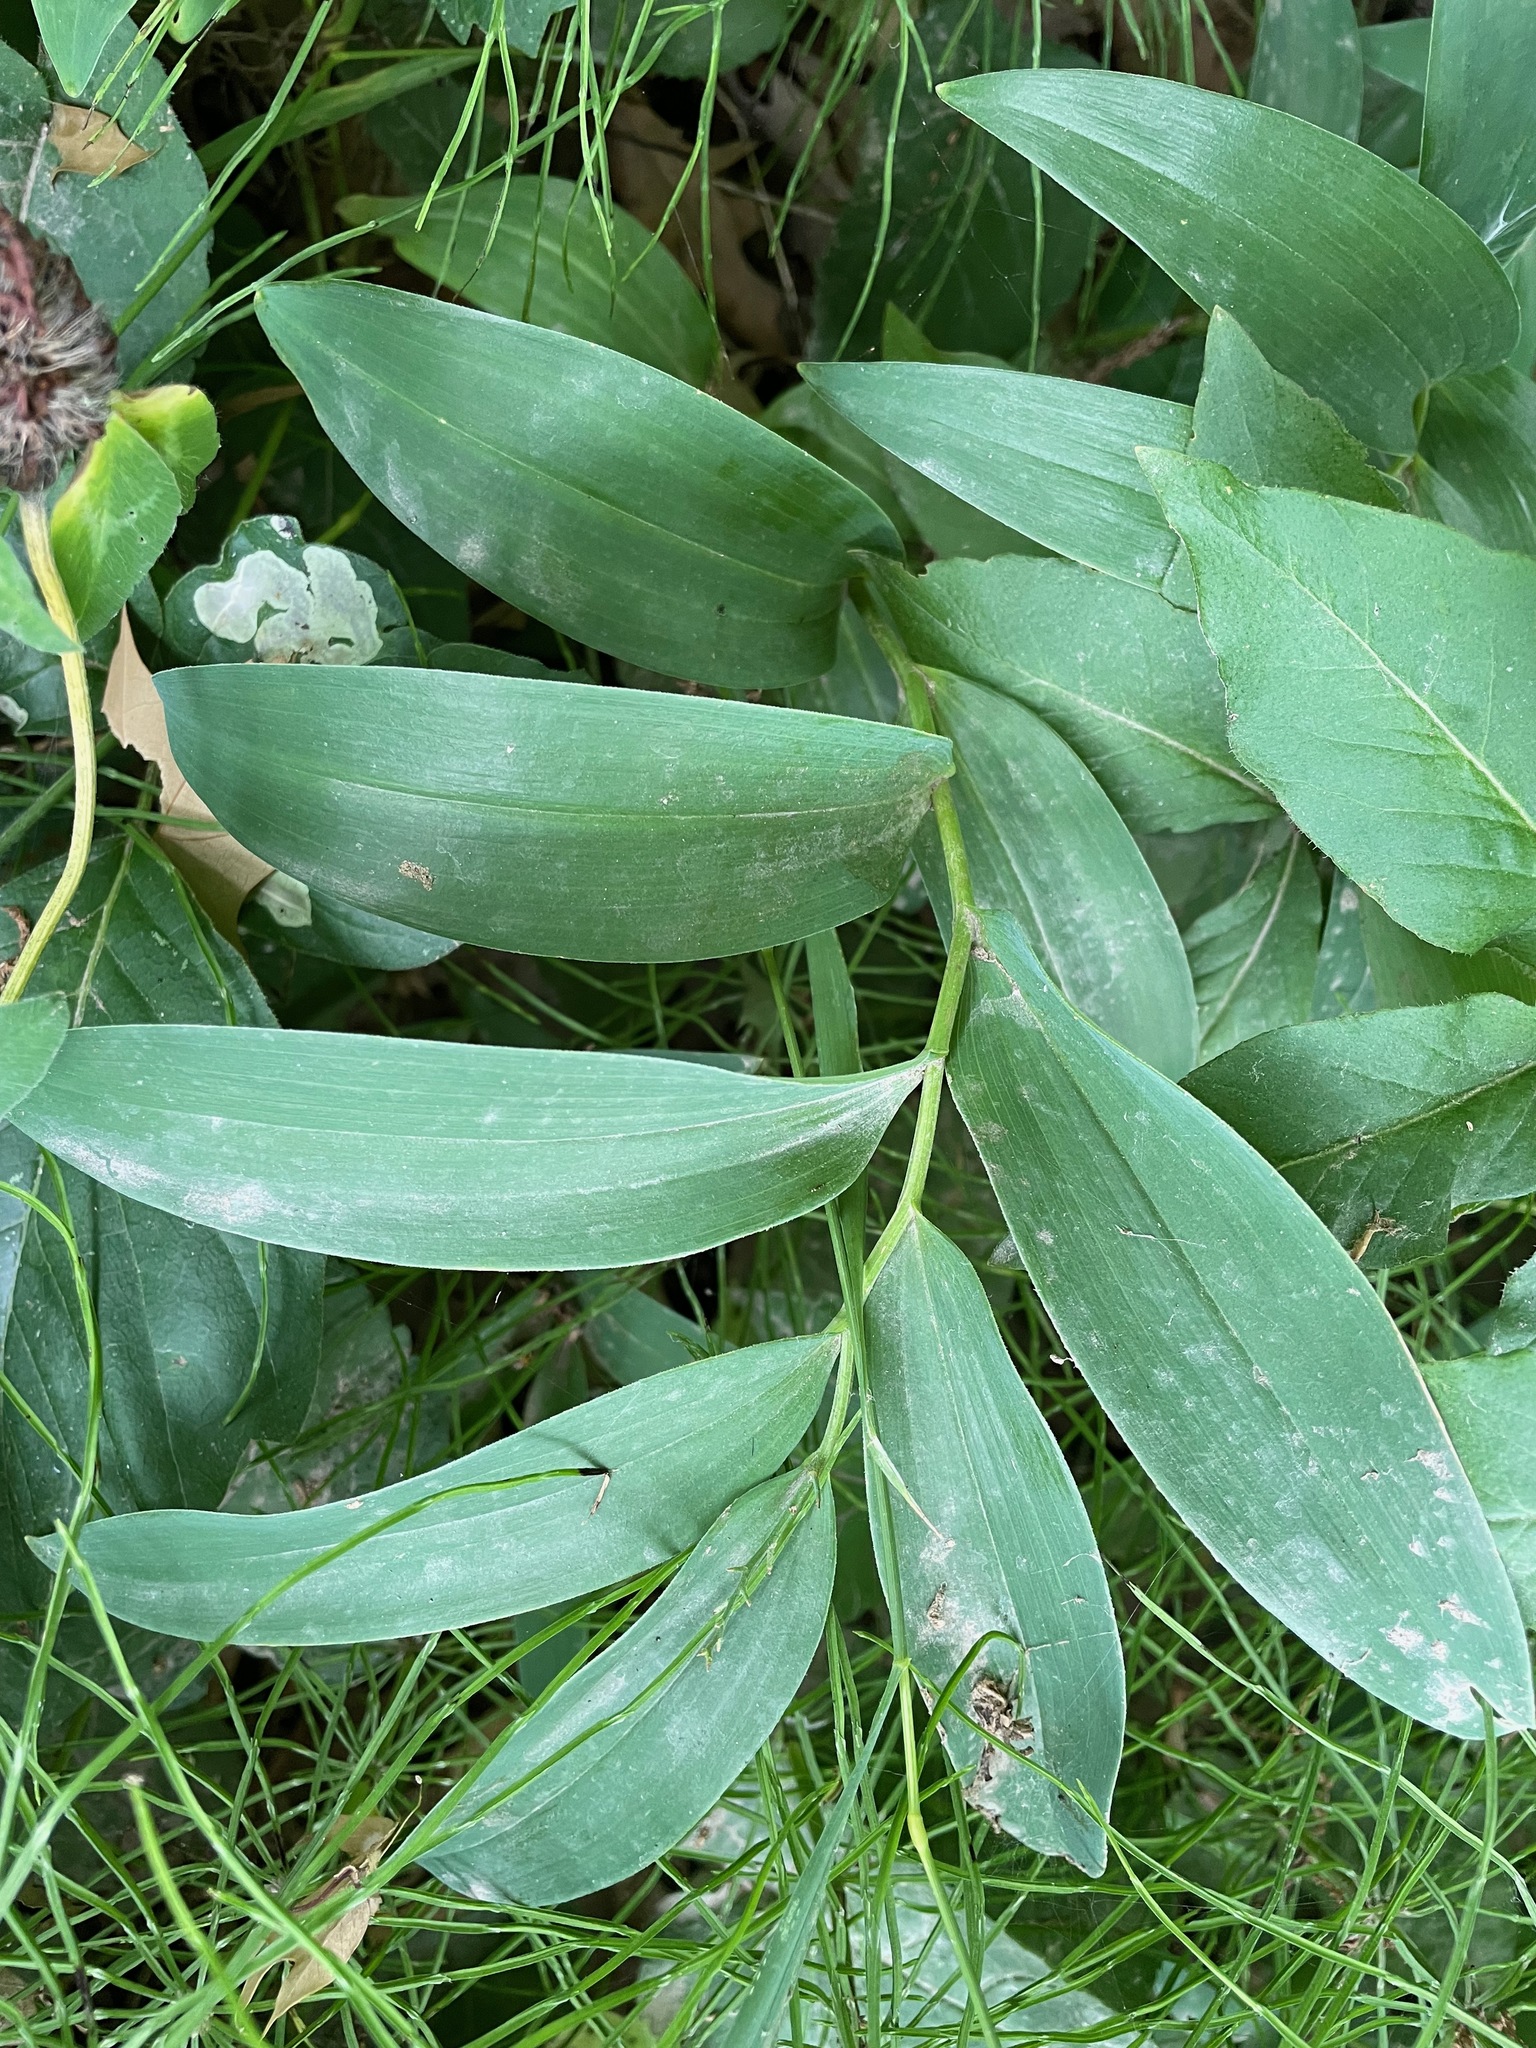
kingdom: Plantae
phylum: Tracheophyta
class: Liliopsida
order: Asparagales
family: Asparagaceae
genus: Maianthemum
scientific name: Maianthemum stellatum
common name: Little false solomon's seal
